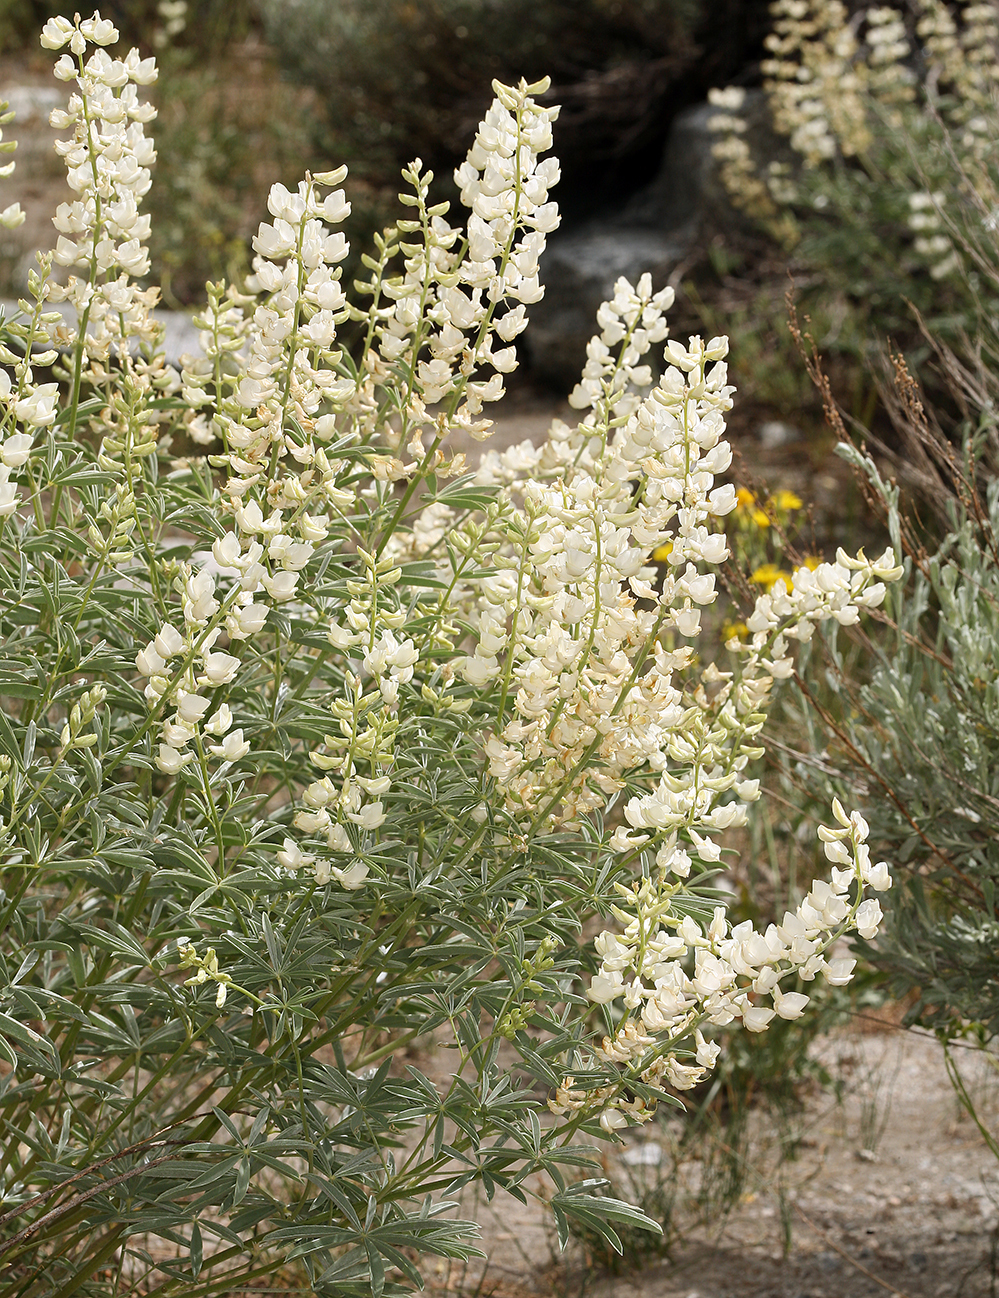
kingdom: Plantae
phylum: Tracheophyta
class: Magnoliopsida
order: Fabales
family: Fabaceae
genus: Lupinus
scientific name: Lupinus arbustus
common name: Montana lupine
